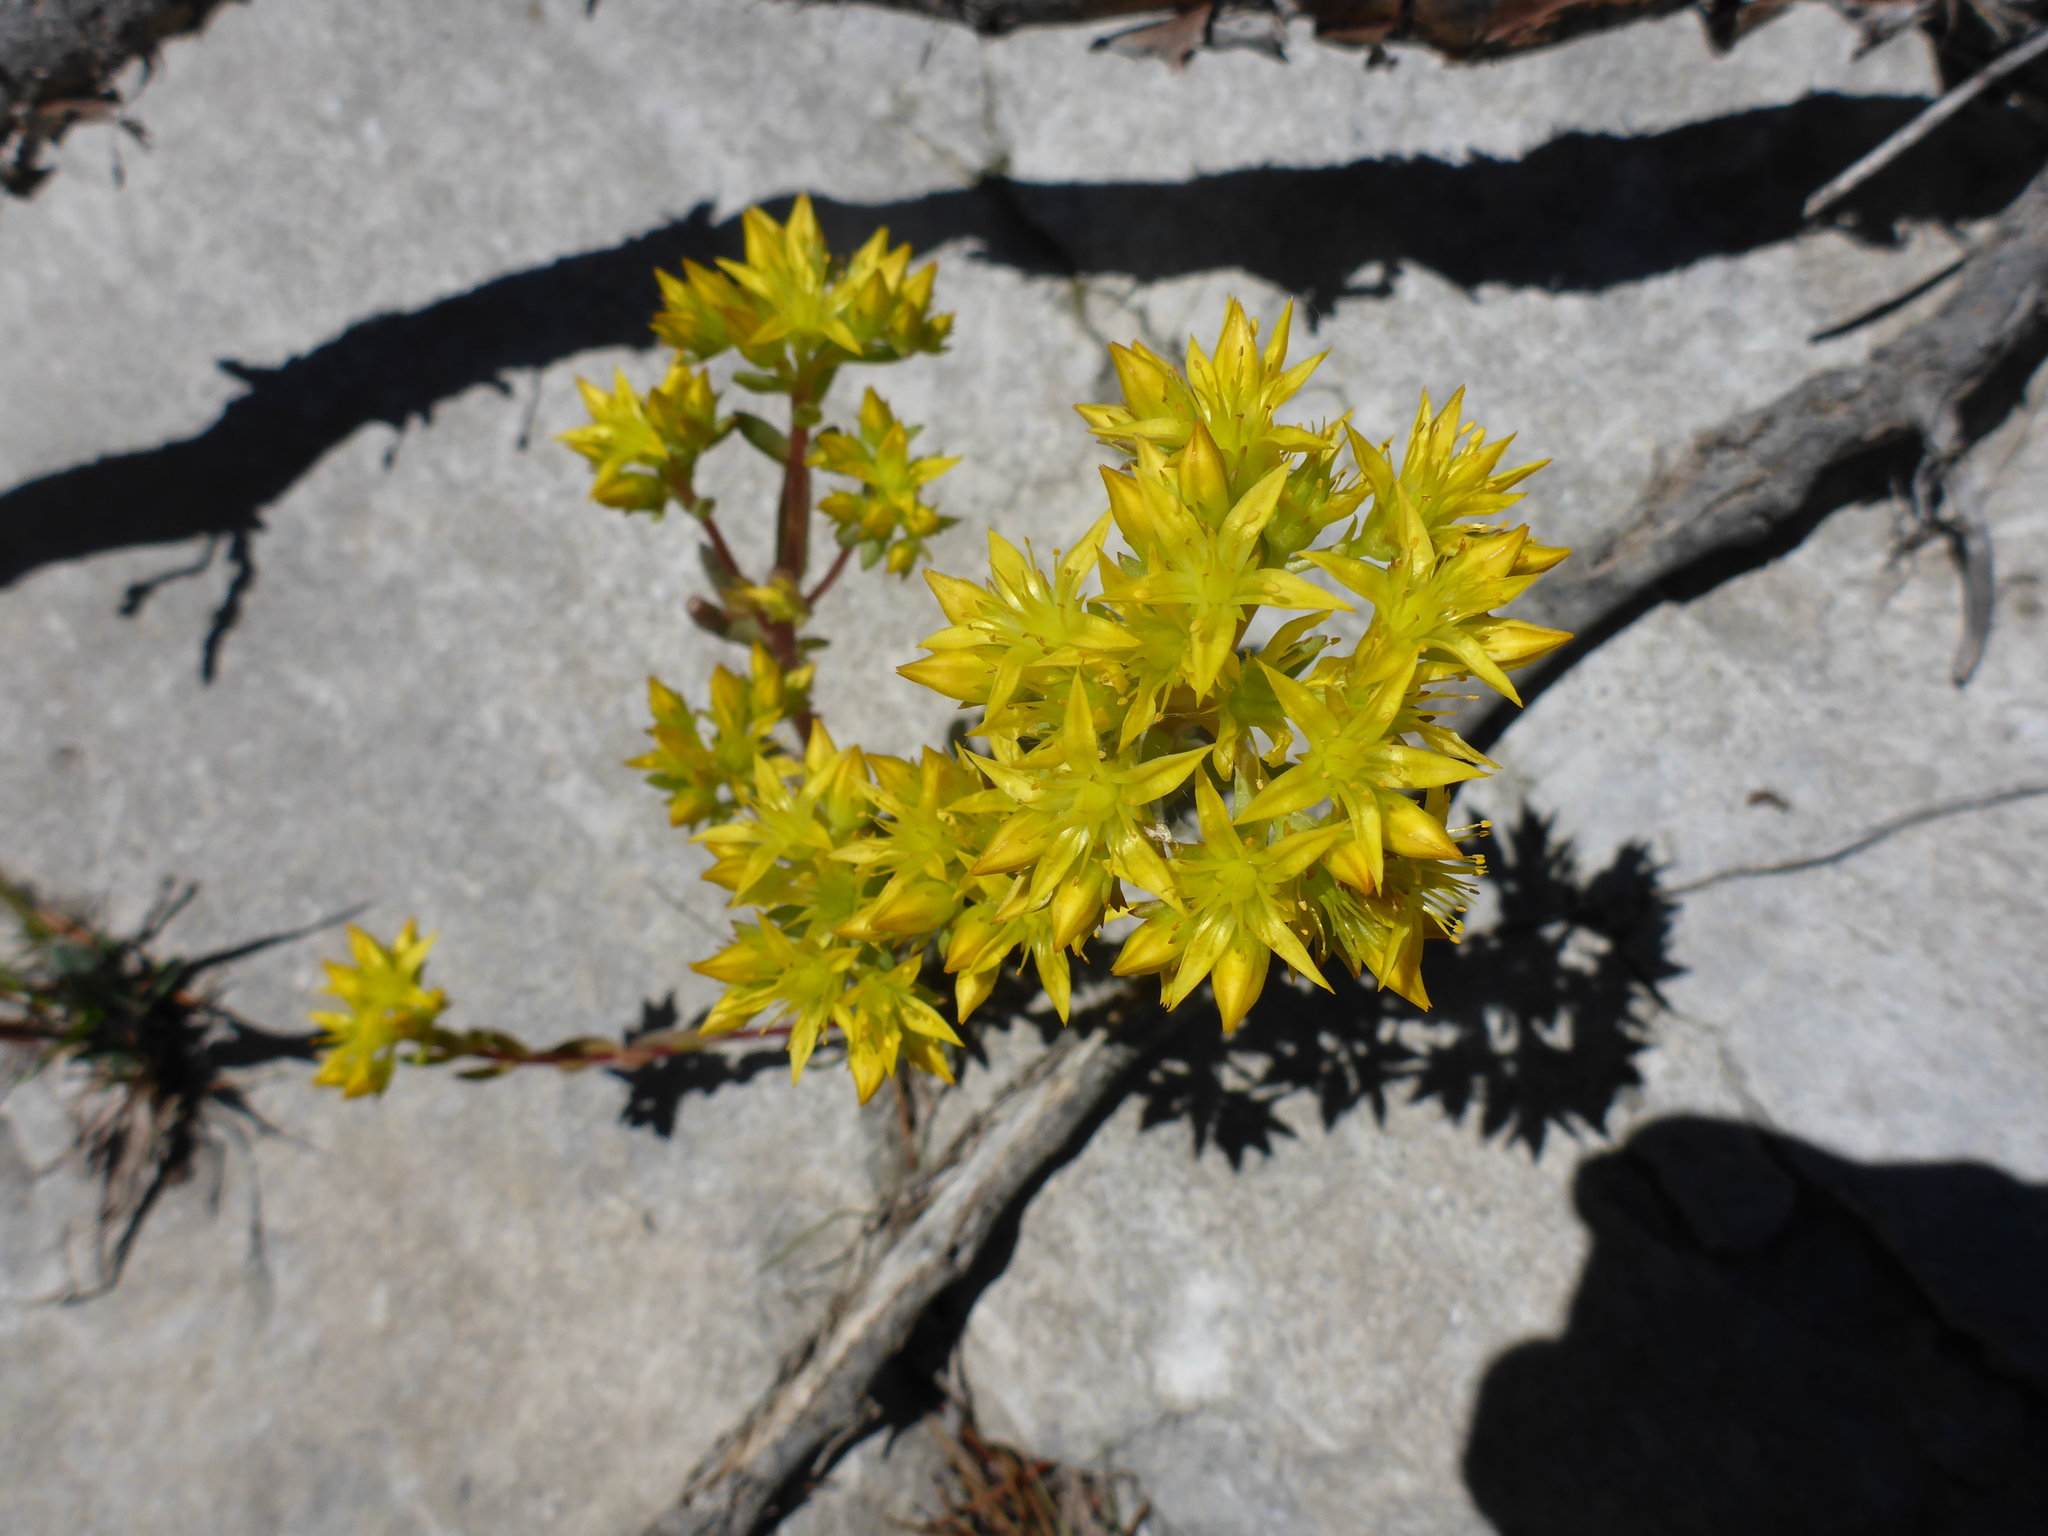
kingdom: Plantae
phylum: Tracheophyta
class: Magnoliopsida
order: Saxifragales
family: Crassulaceae
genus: Sedum
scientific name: Sedum lanceolatum
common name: Common stonecrop
